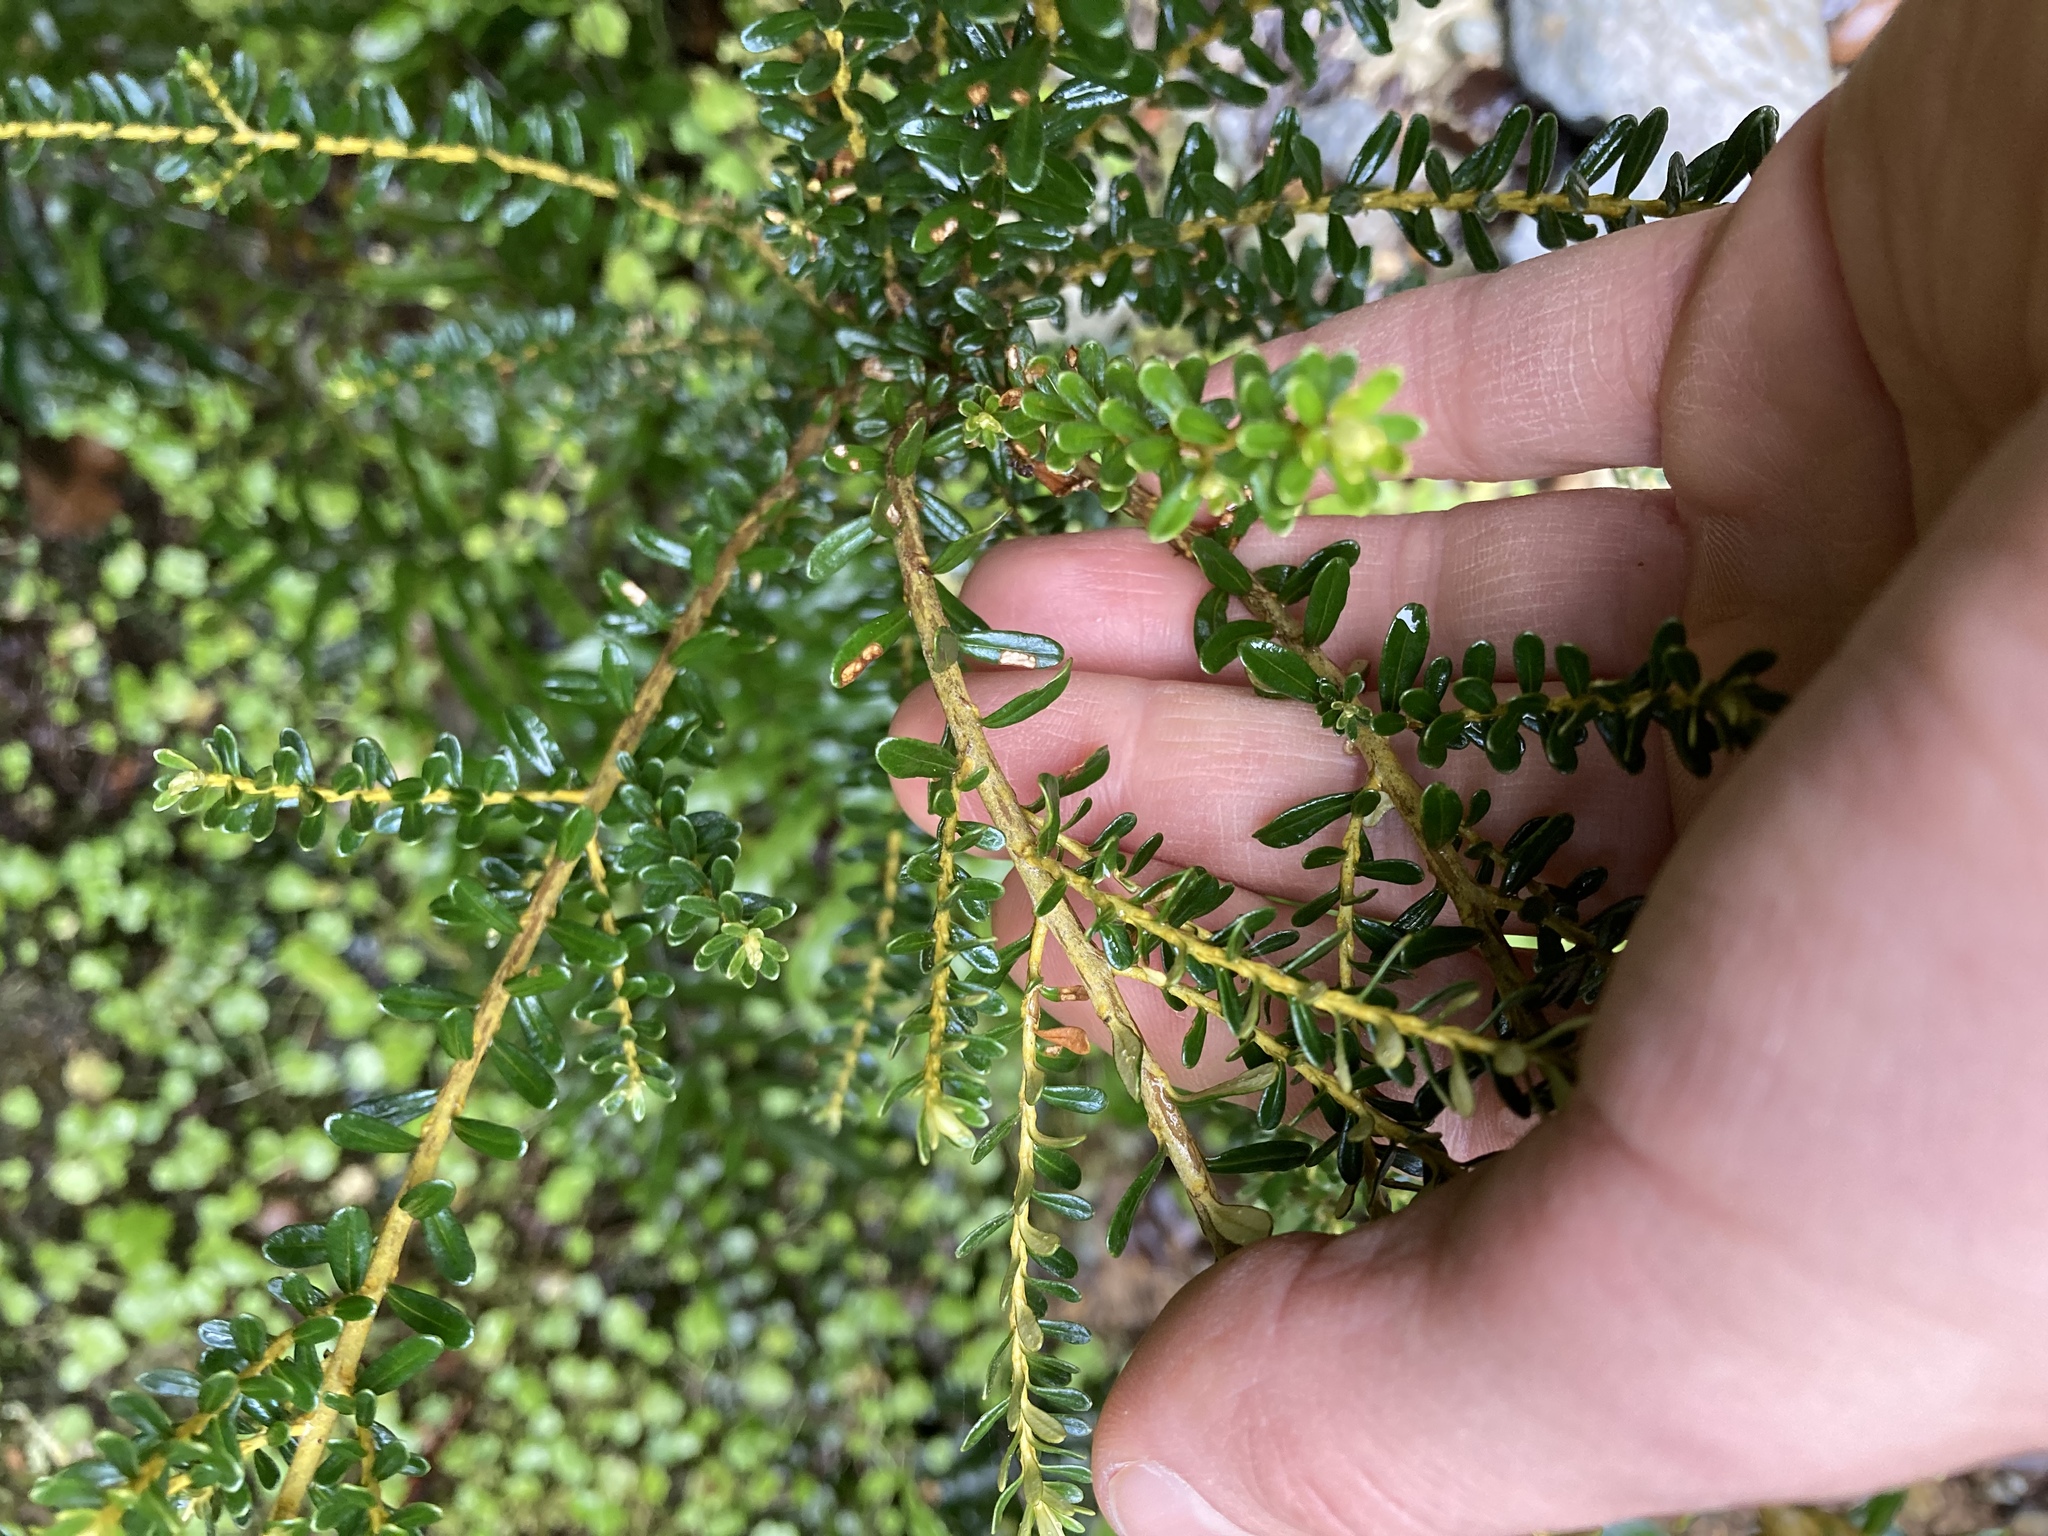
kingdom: Plantae
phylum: Tracheophyta
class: Magnoliopsida
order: Asterales
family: Asteraceae
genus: Ozothamnus
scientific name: Ozothamnus leptophyllus
